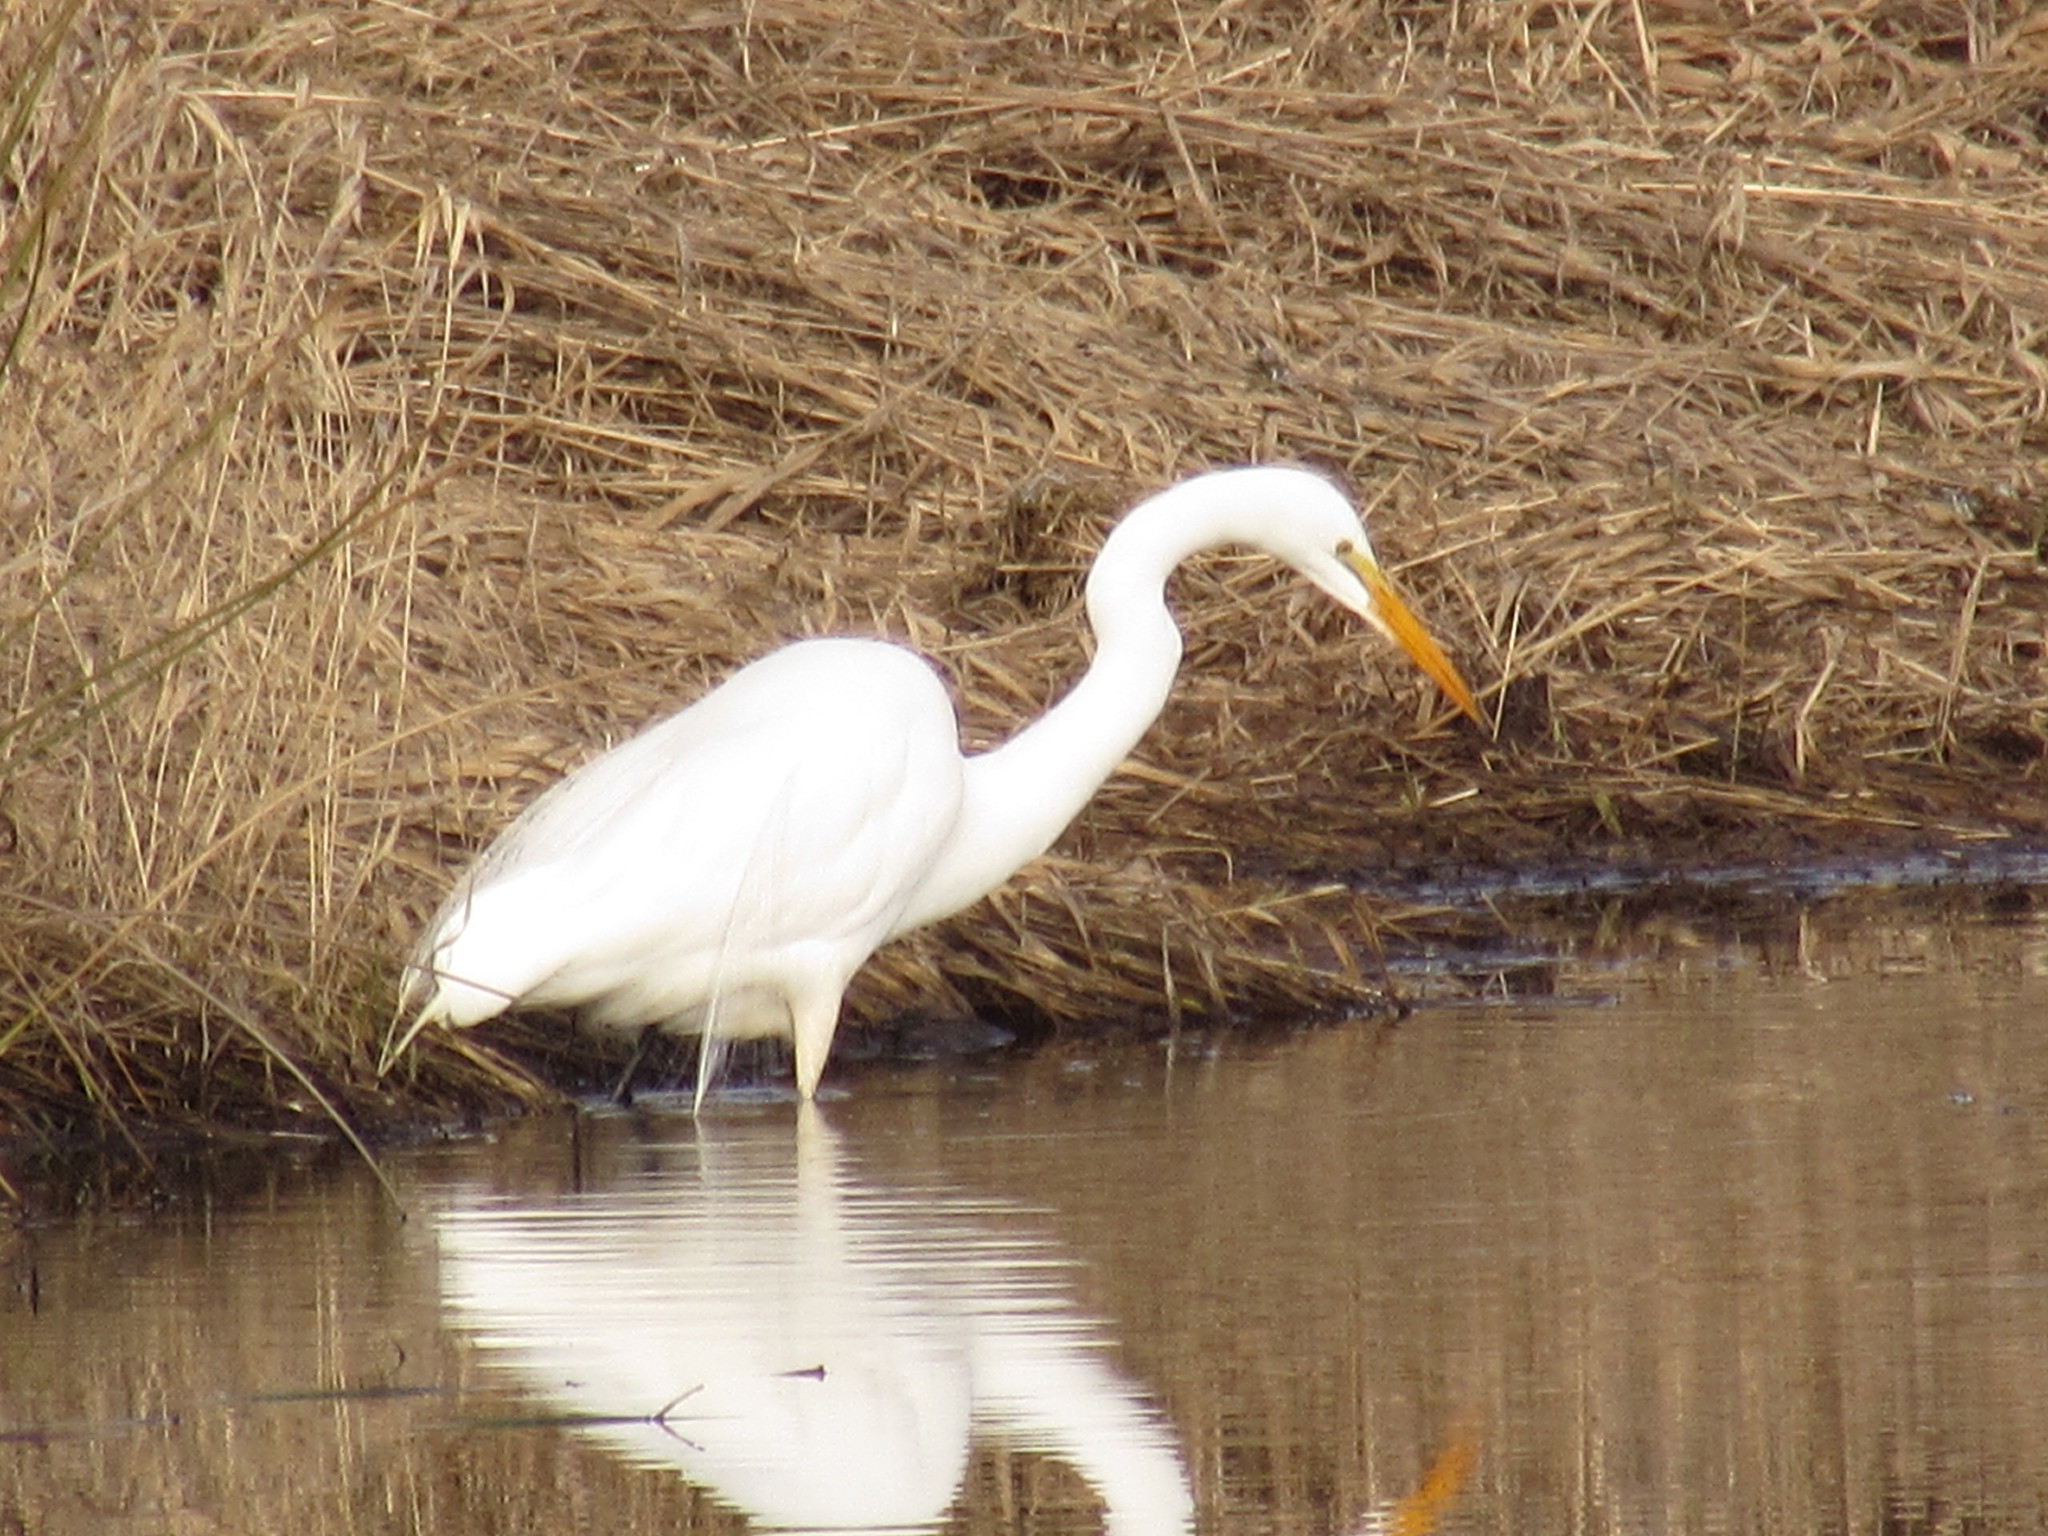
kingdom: Animalia
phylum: Chordata
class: Aves
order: Pelecaniformes
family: Ardeidae
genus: Ardea
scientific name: Ardea alba
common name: Great egret
